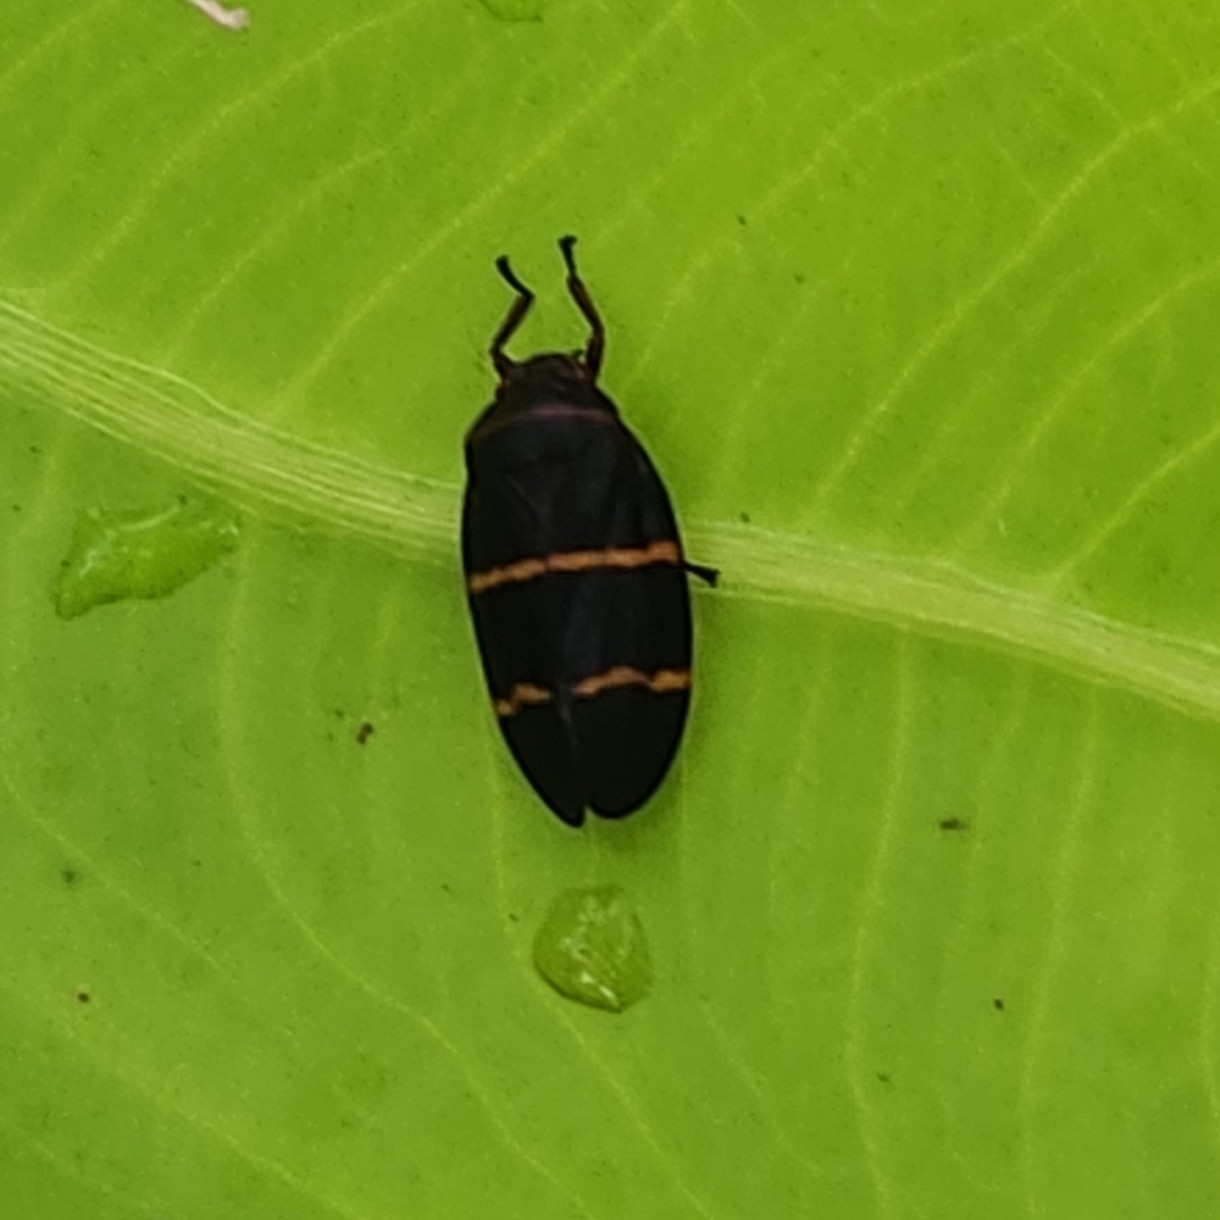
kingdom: Animalia
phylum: Arthropoda
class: Insecta
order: Hemiptera
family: Cercopidae
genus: Prosapia
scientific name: Prosapia bicincta
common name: Twolined spittlebug
